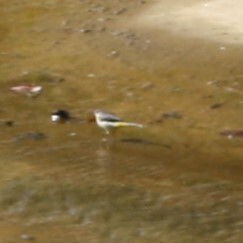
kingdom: Animalia
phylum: Chordata
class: Aves
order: Passeriformes
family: Motacillidae
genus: Motacilla
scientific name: Motacilla cinerea
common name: Grey wagtail
